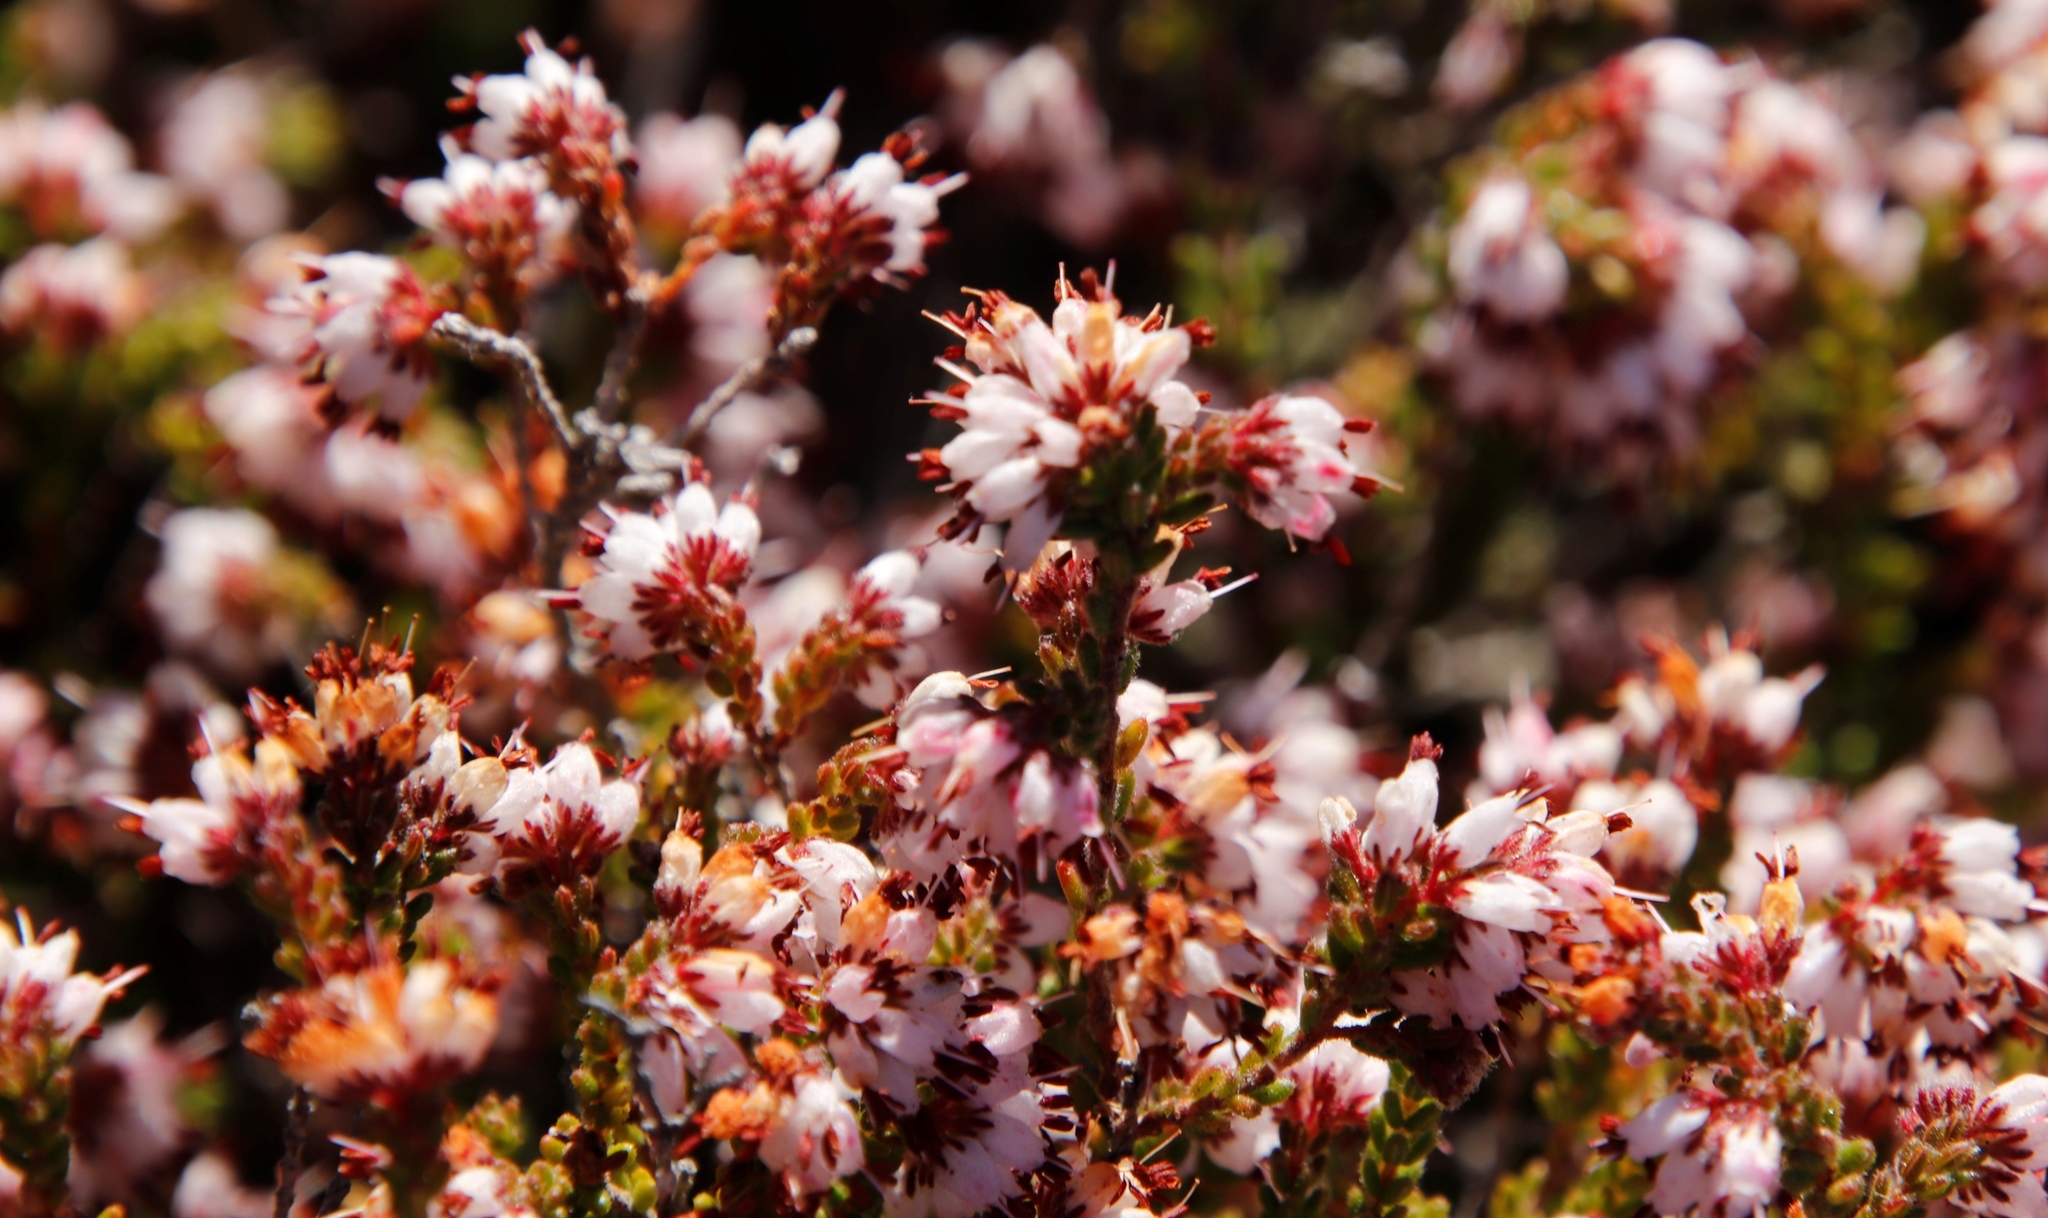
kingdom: Plantae
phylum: Tracheophyta
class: Magnoliopsida
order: Ericales
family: Ericaceae
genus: Erica
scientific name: Erica ericoides
